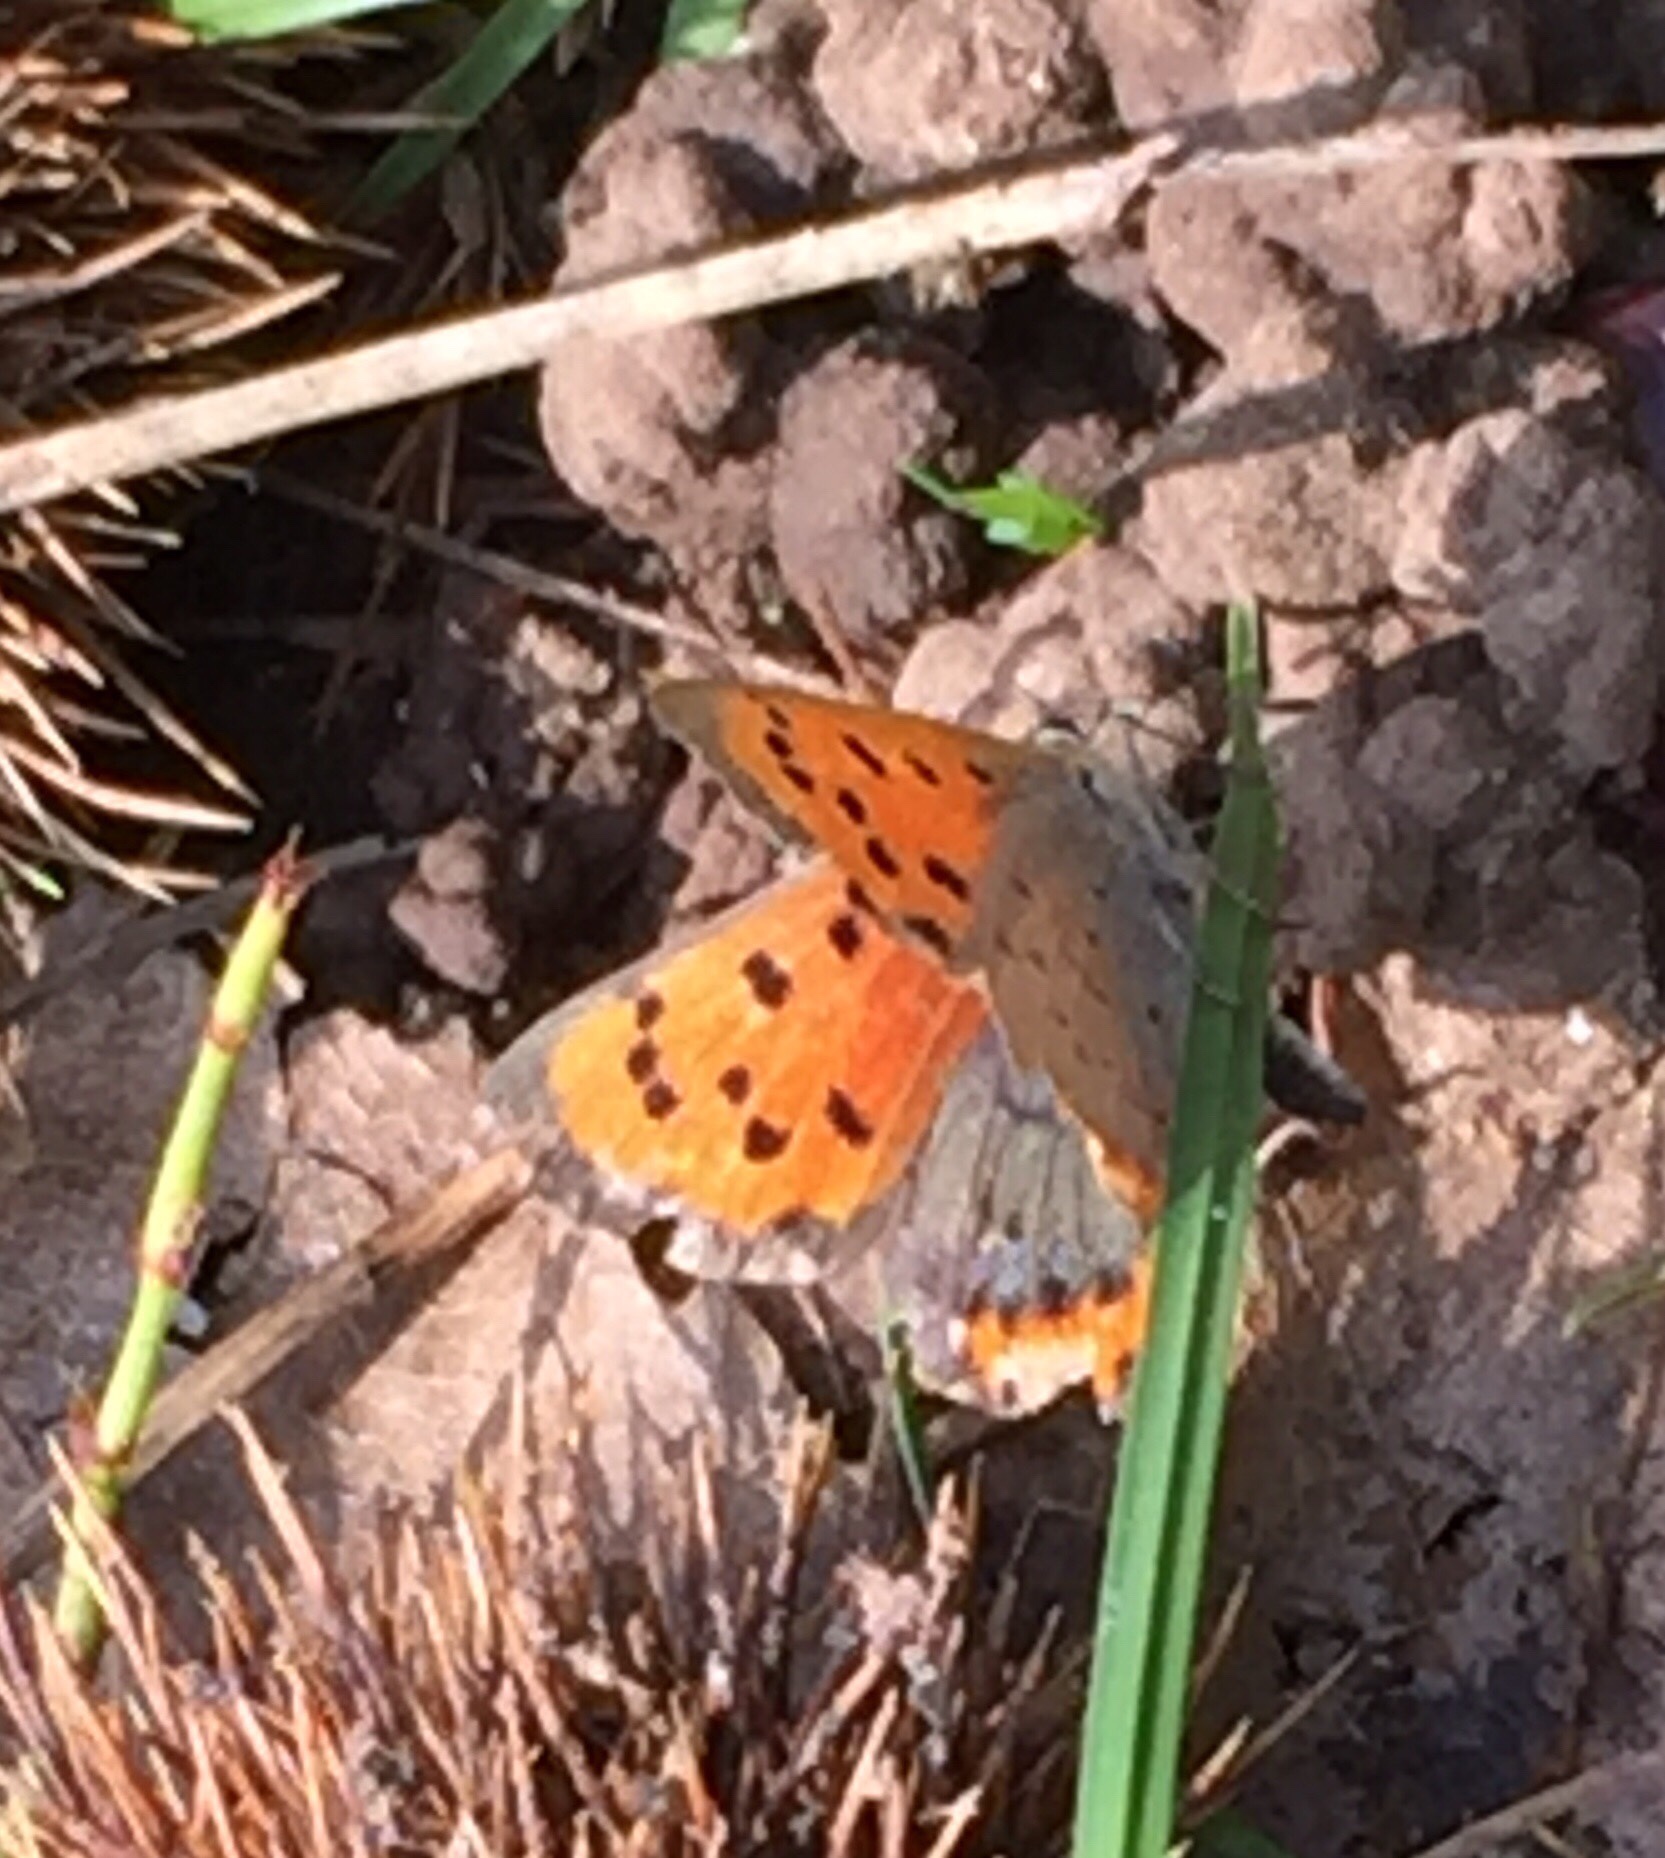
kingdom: Animalia
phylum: Arthropoda
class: Insecta
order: Lepidoptera
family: Lycaenidae
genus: Lycaena
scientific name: Lycaena phlaeas
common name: Small copper
